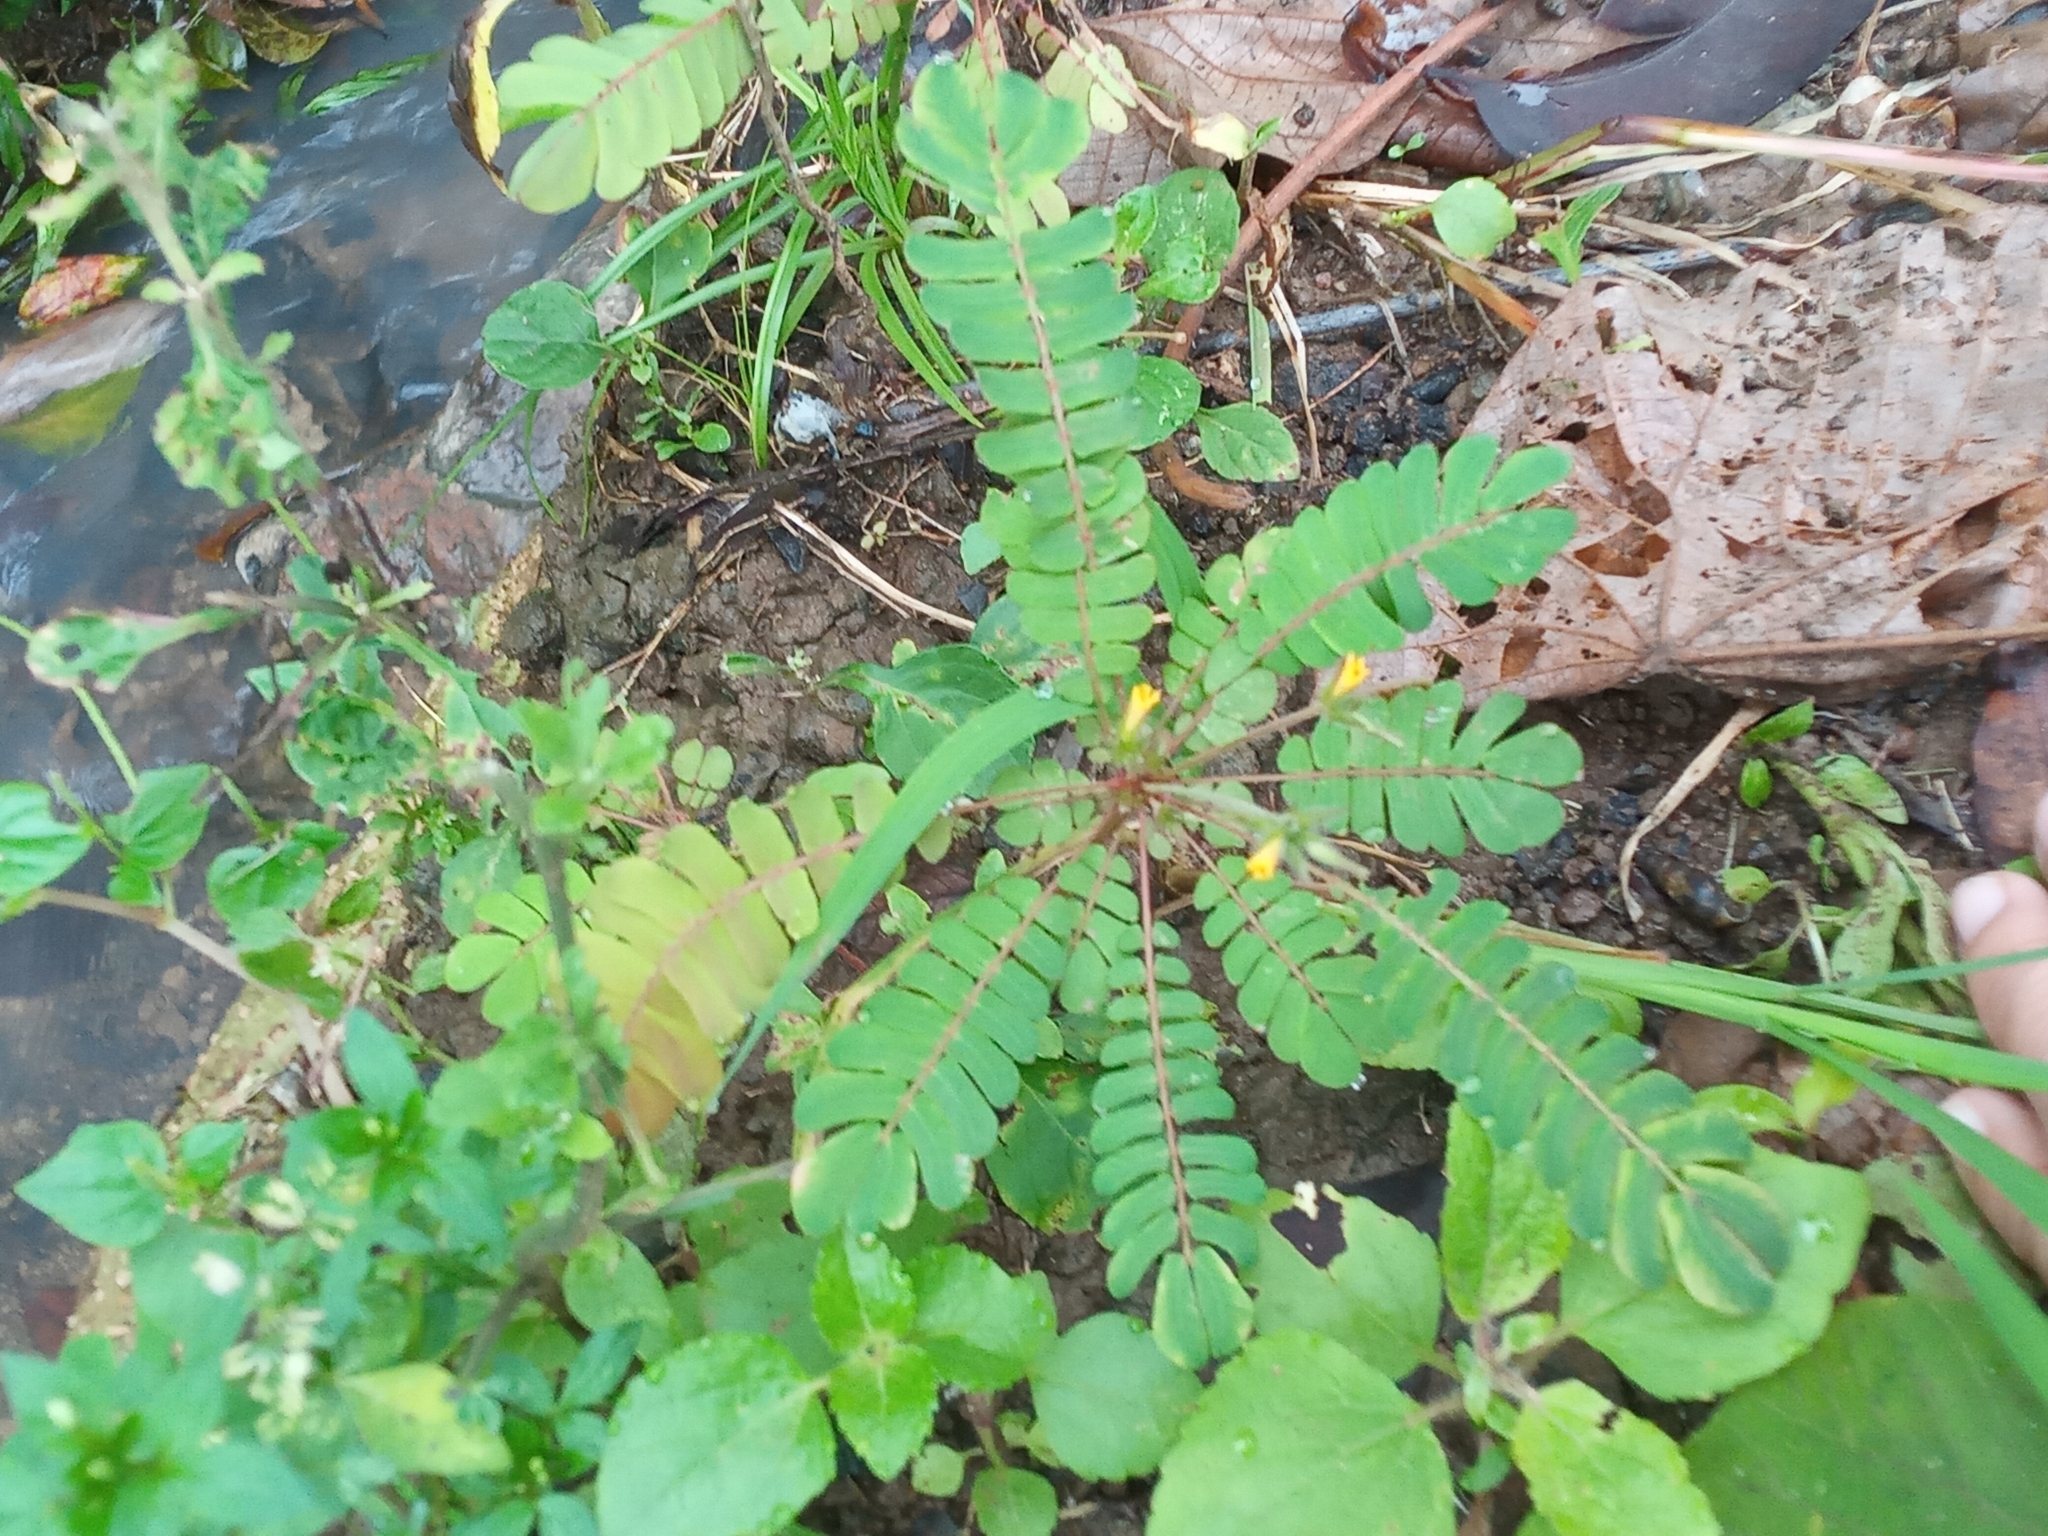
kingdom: Plantae
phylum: Tracheophyta
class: Magnoliopsida
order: Oxalidales
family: Oxalidaceae
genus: Biophytum
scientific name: Biophytum sensitivum
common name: Lifeplant
